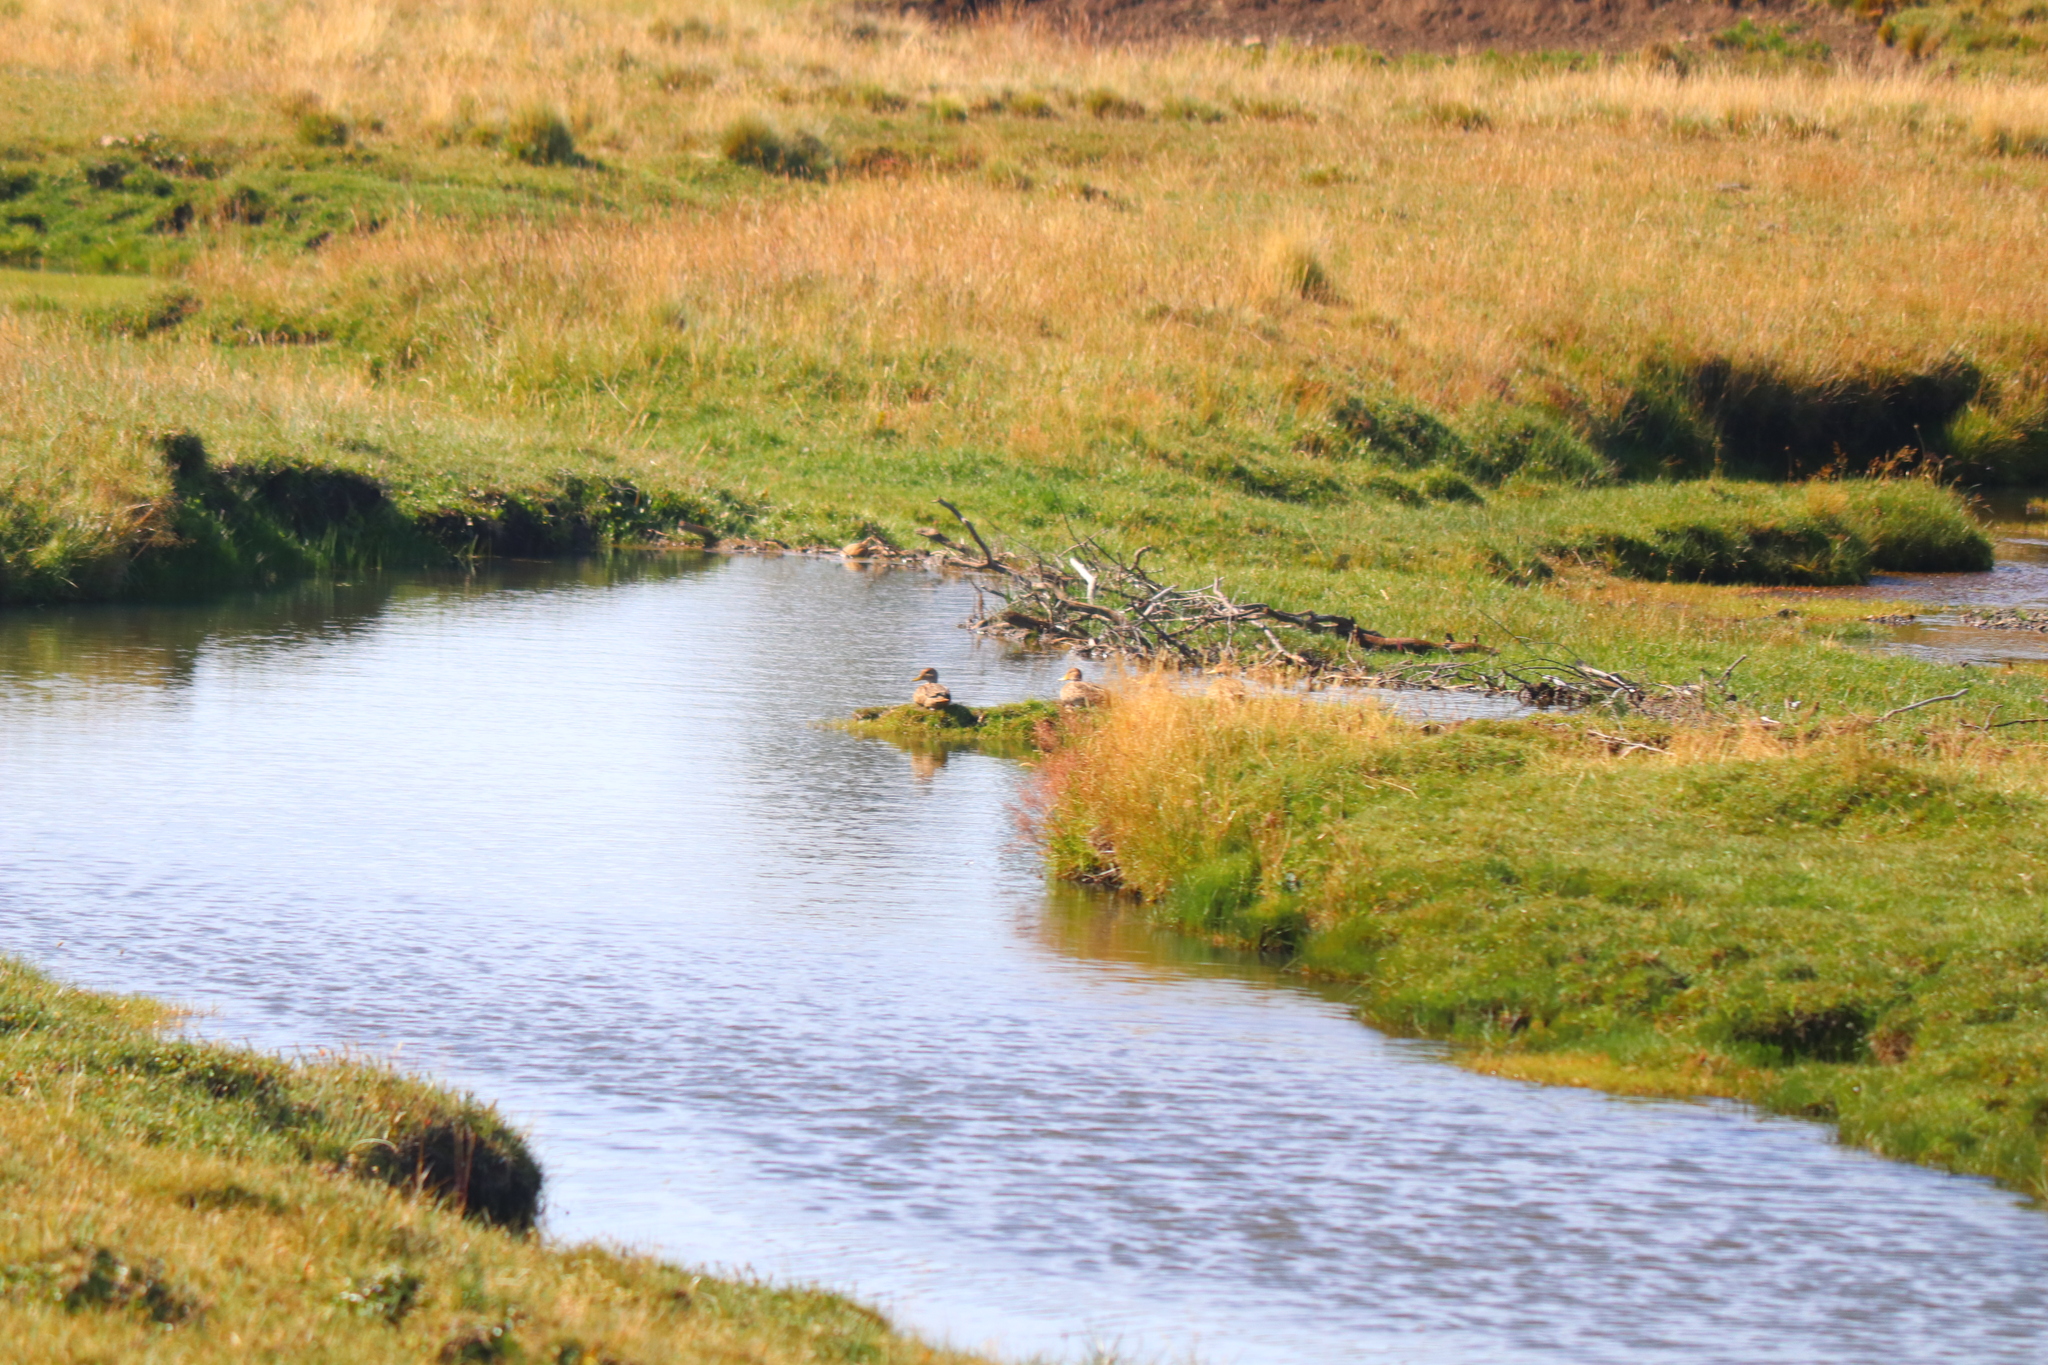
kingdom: Animalia
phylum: Chordata
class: Aves
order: Anseriformes
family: Anatidae
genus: Anas
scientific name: Anas flavirostris
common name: Yellow-billed teal
